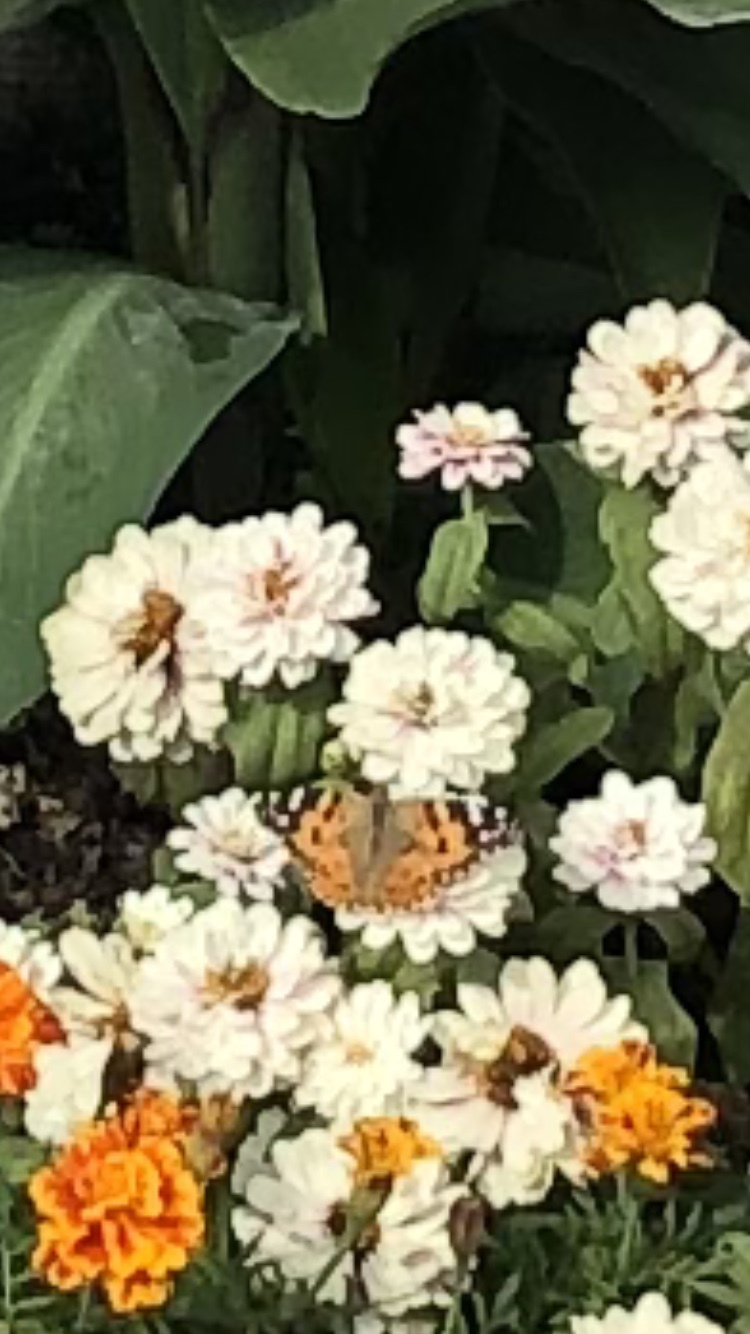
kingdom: Animalia
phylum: Arthropoda
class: Insecta
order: Lepidoptera
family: Nymphalidae
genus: Vanessa
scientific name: Vanessa cardui
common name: Painted lady
